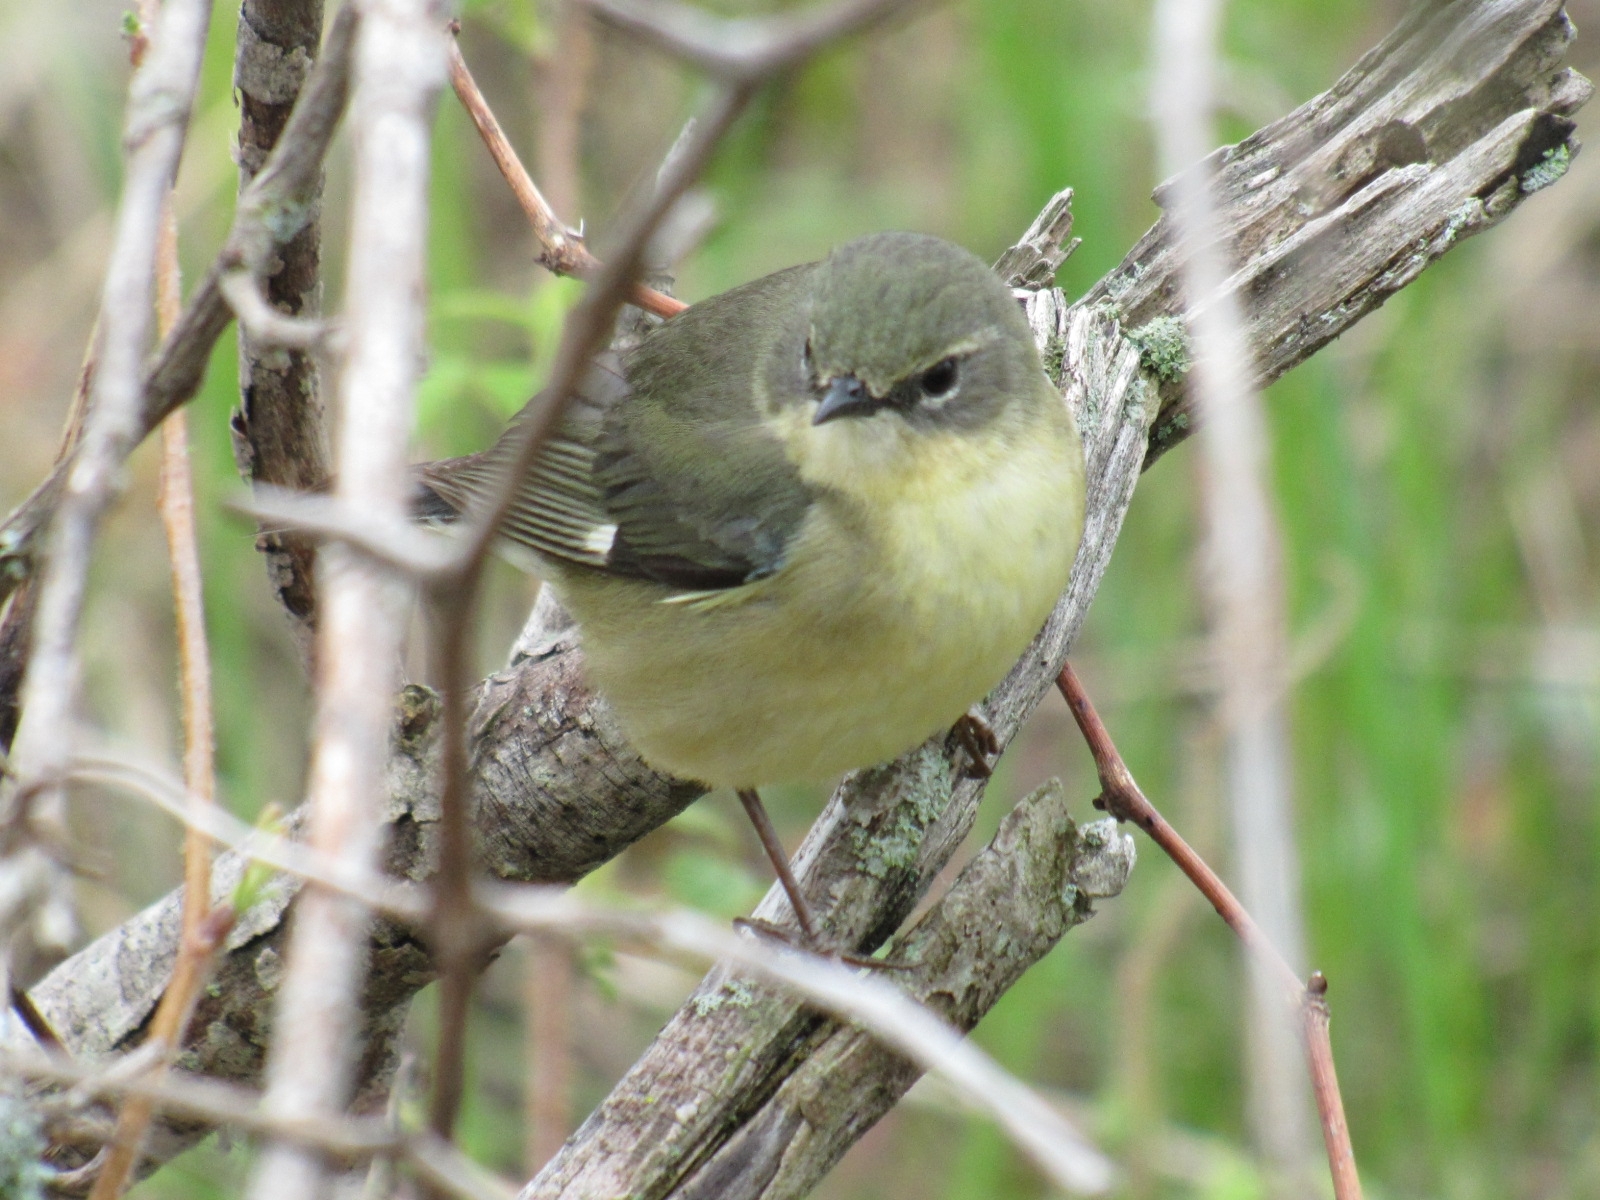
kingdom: Animalia
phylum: Chordata
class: Aves
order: Passeriformes
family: Parulidae
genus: Setophaga
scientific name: Setophaga caerulescens
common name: Black-throated blue warbler
